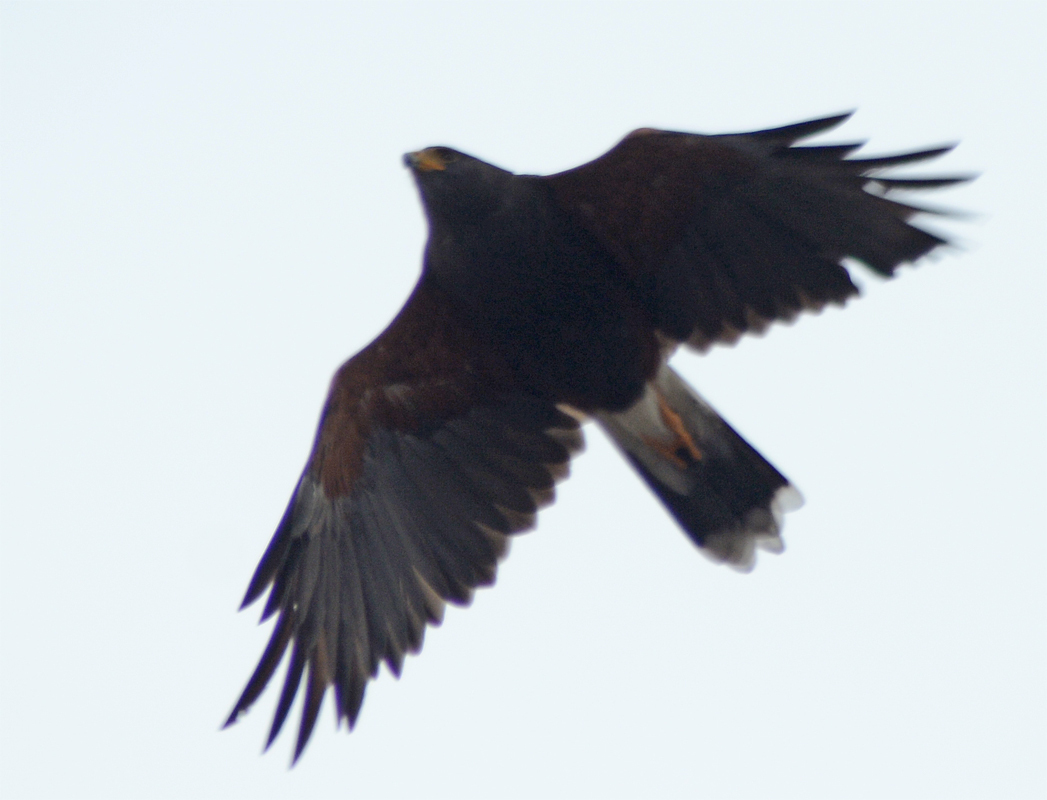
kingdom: Animalia
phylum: Chordata
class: Aves
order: Accipitriformes
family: Accipitridae
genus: Parabuteo
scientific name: Parabuteo unicinctus
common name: Harris's hawk
